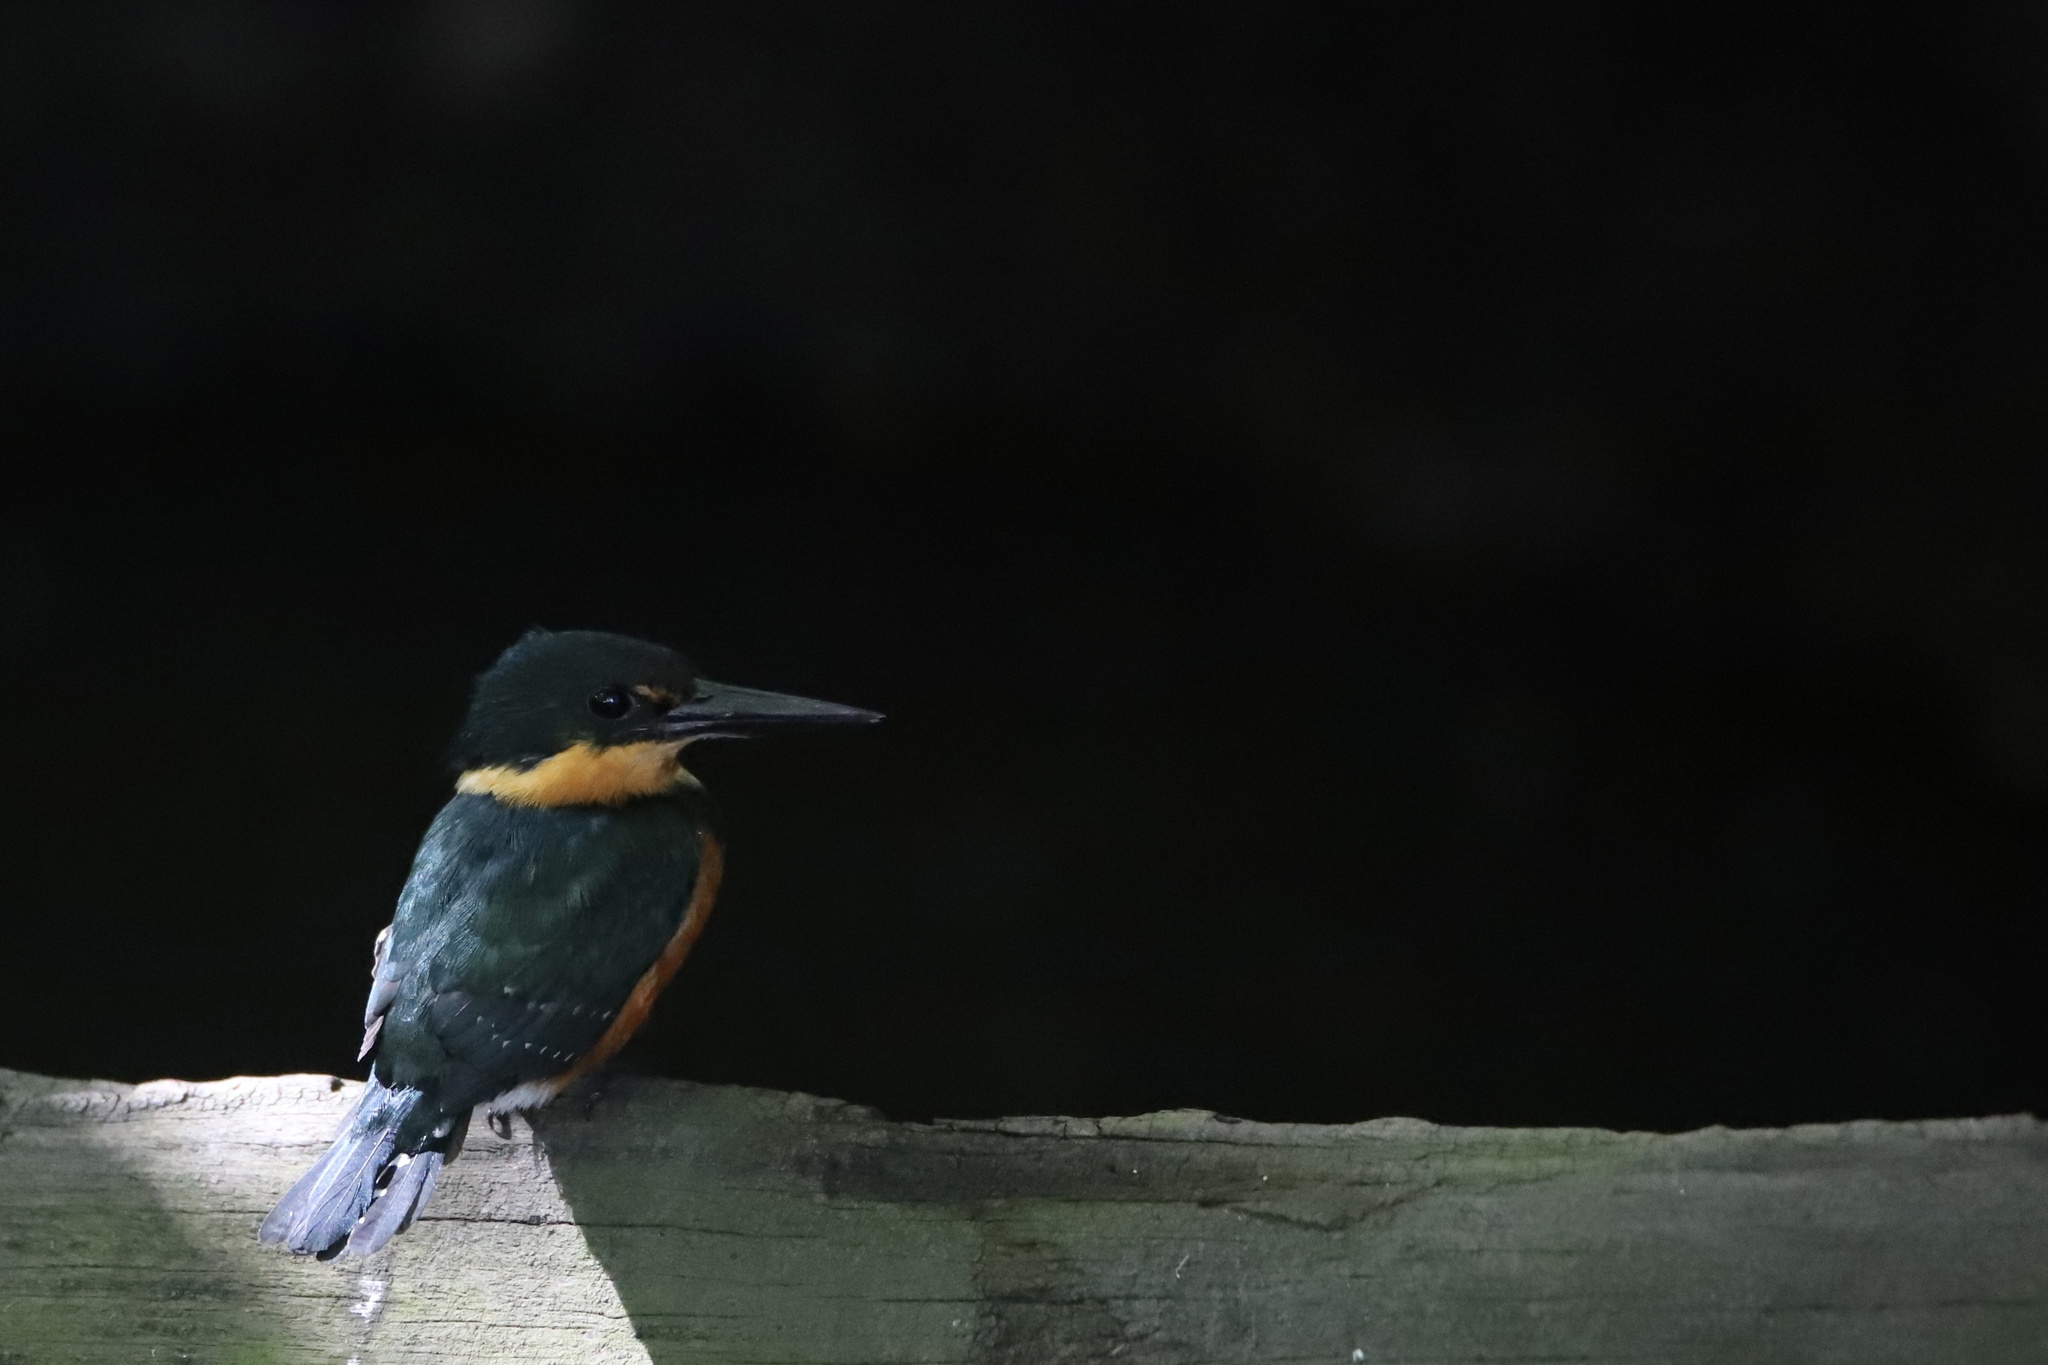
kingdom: Animalia
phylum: Chordata
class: Aves
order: Coraciiformes
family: Alcedinidae
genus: Chloroceryle
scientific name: Chloroceryle aenea
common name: American pygmy kingfisher
